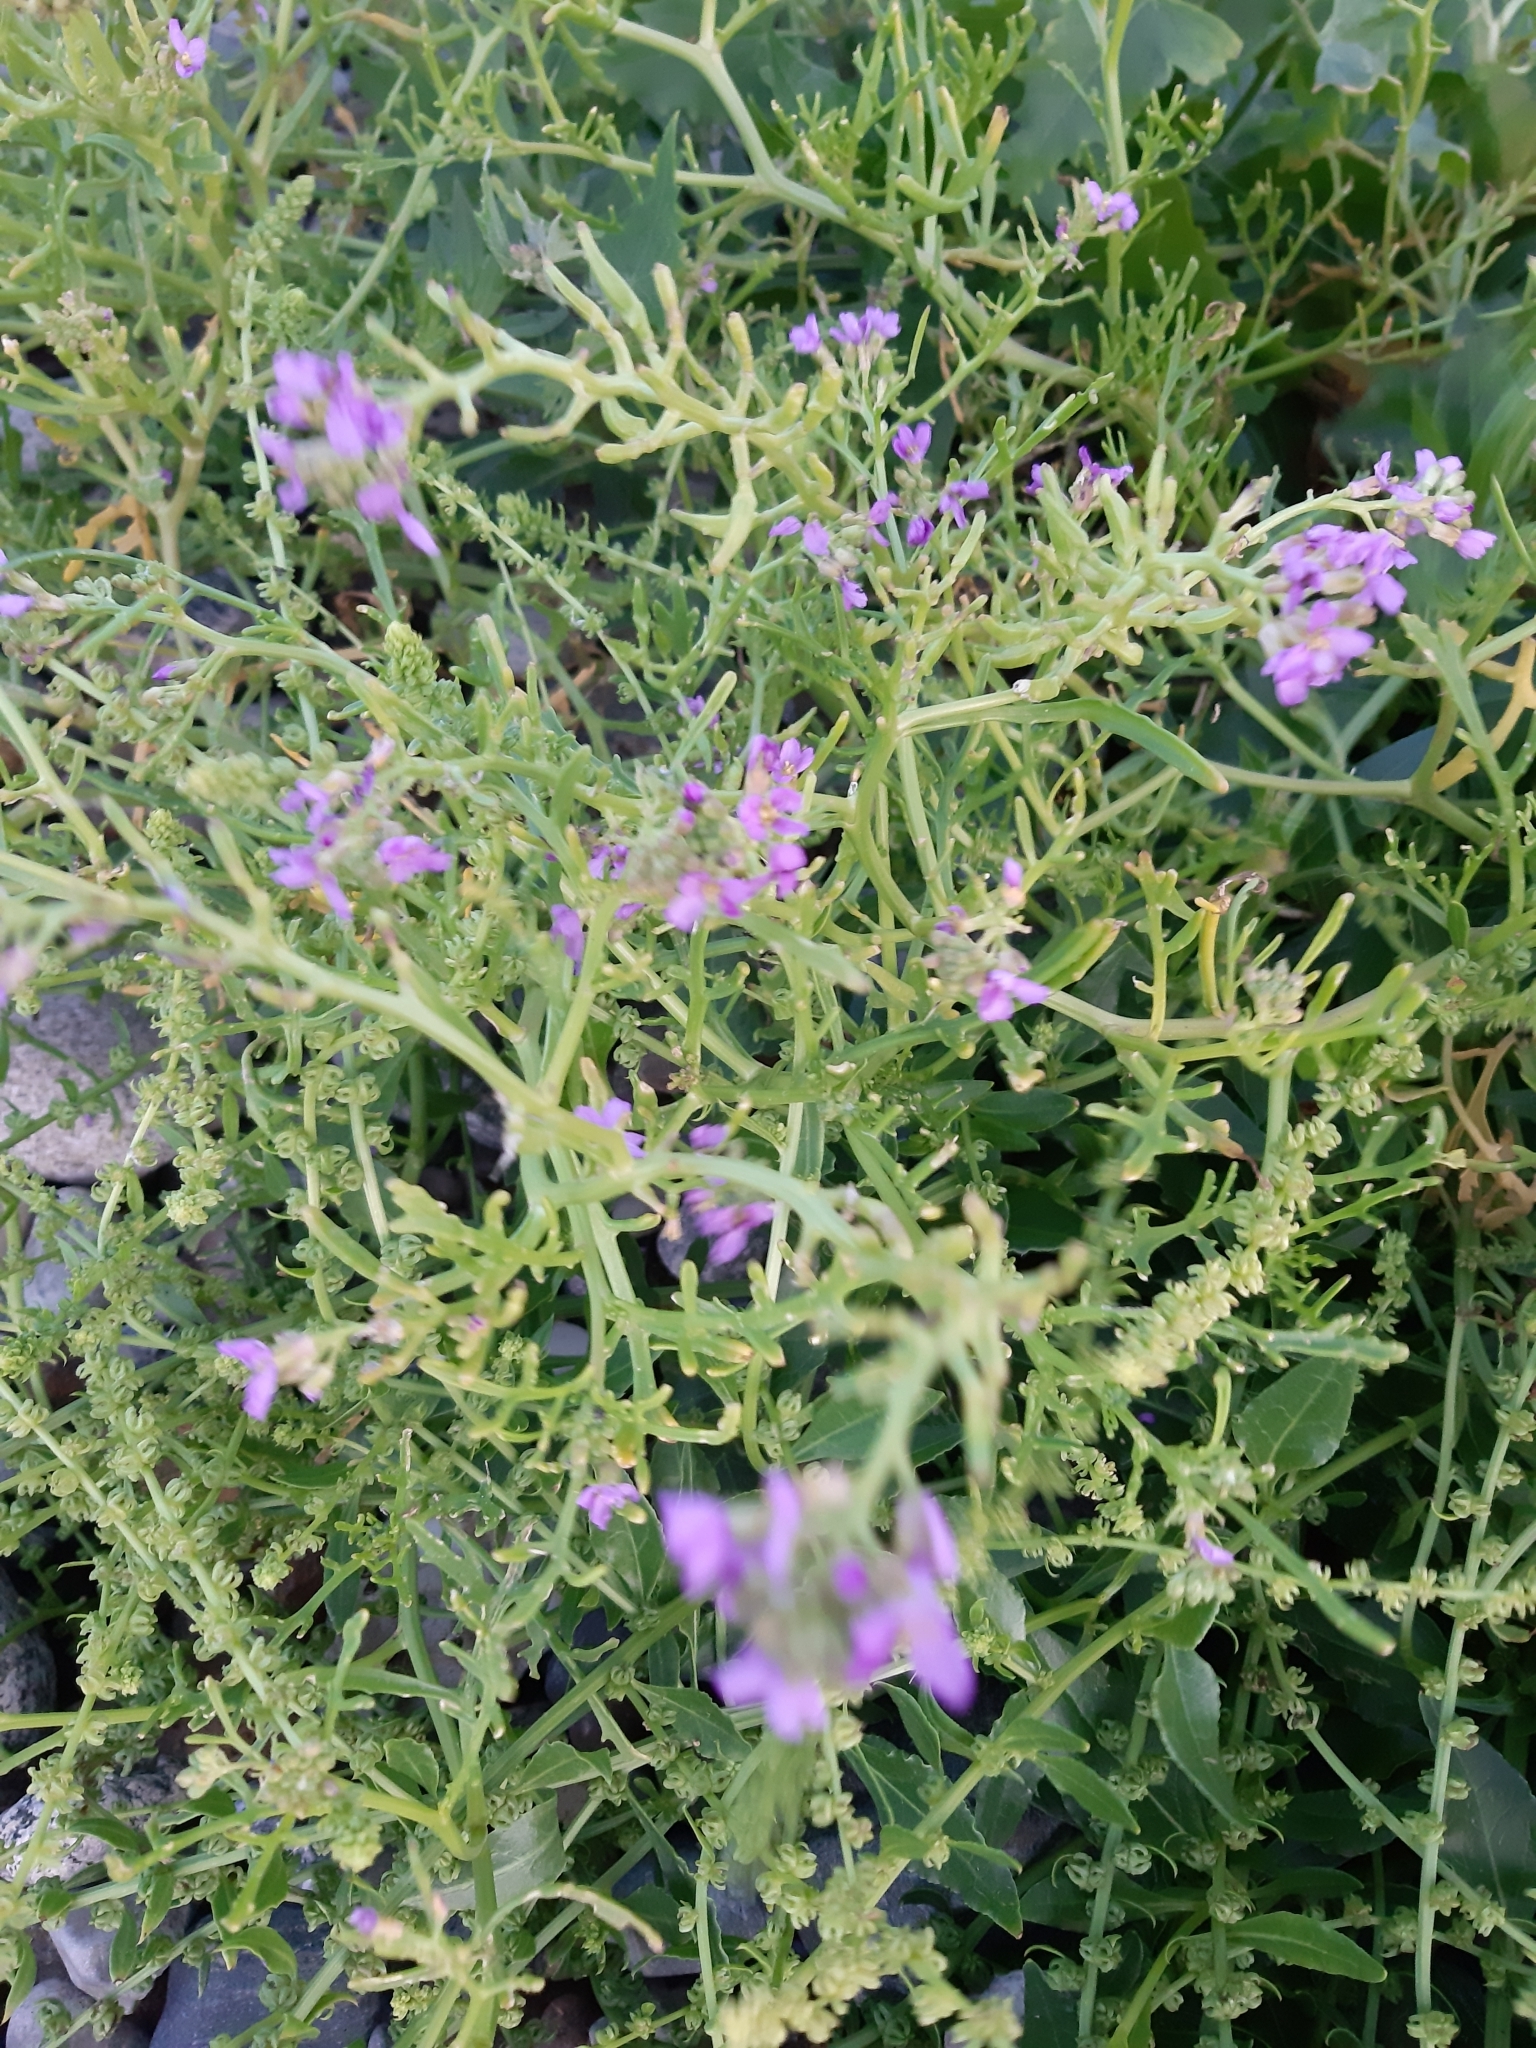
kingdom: Plantae
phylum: Tracheophyta
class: Magnoliopsida
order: Brassicales
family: Brassicaceae
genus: Cakile
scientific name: Cakile maritima
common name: Sea rocket
